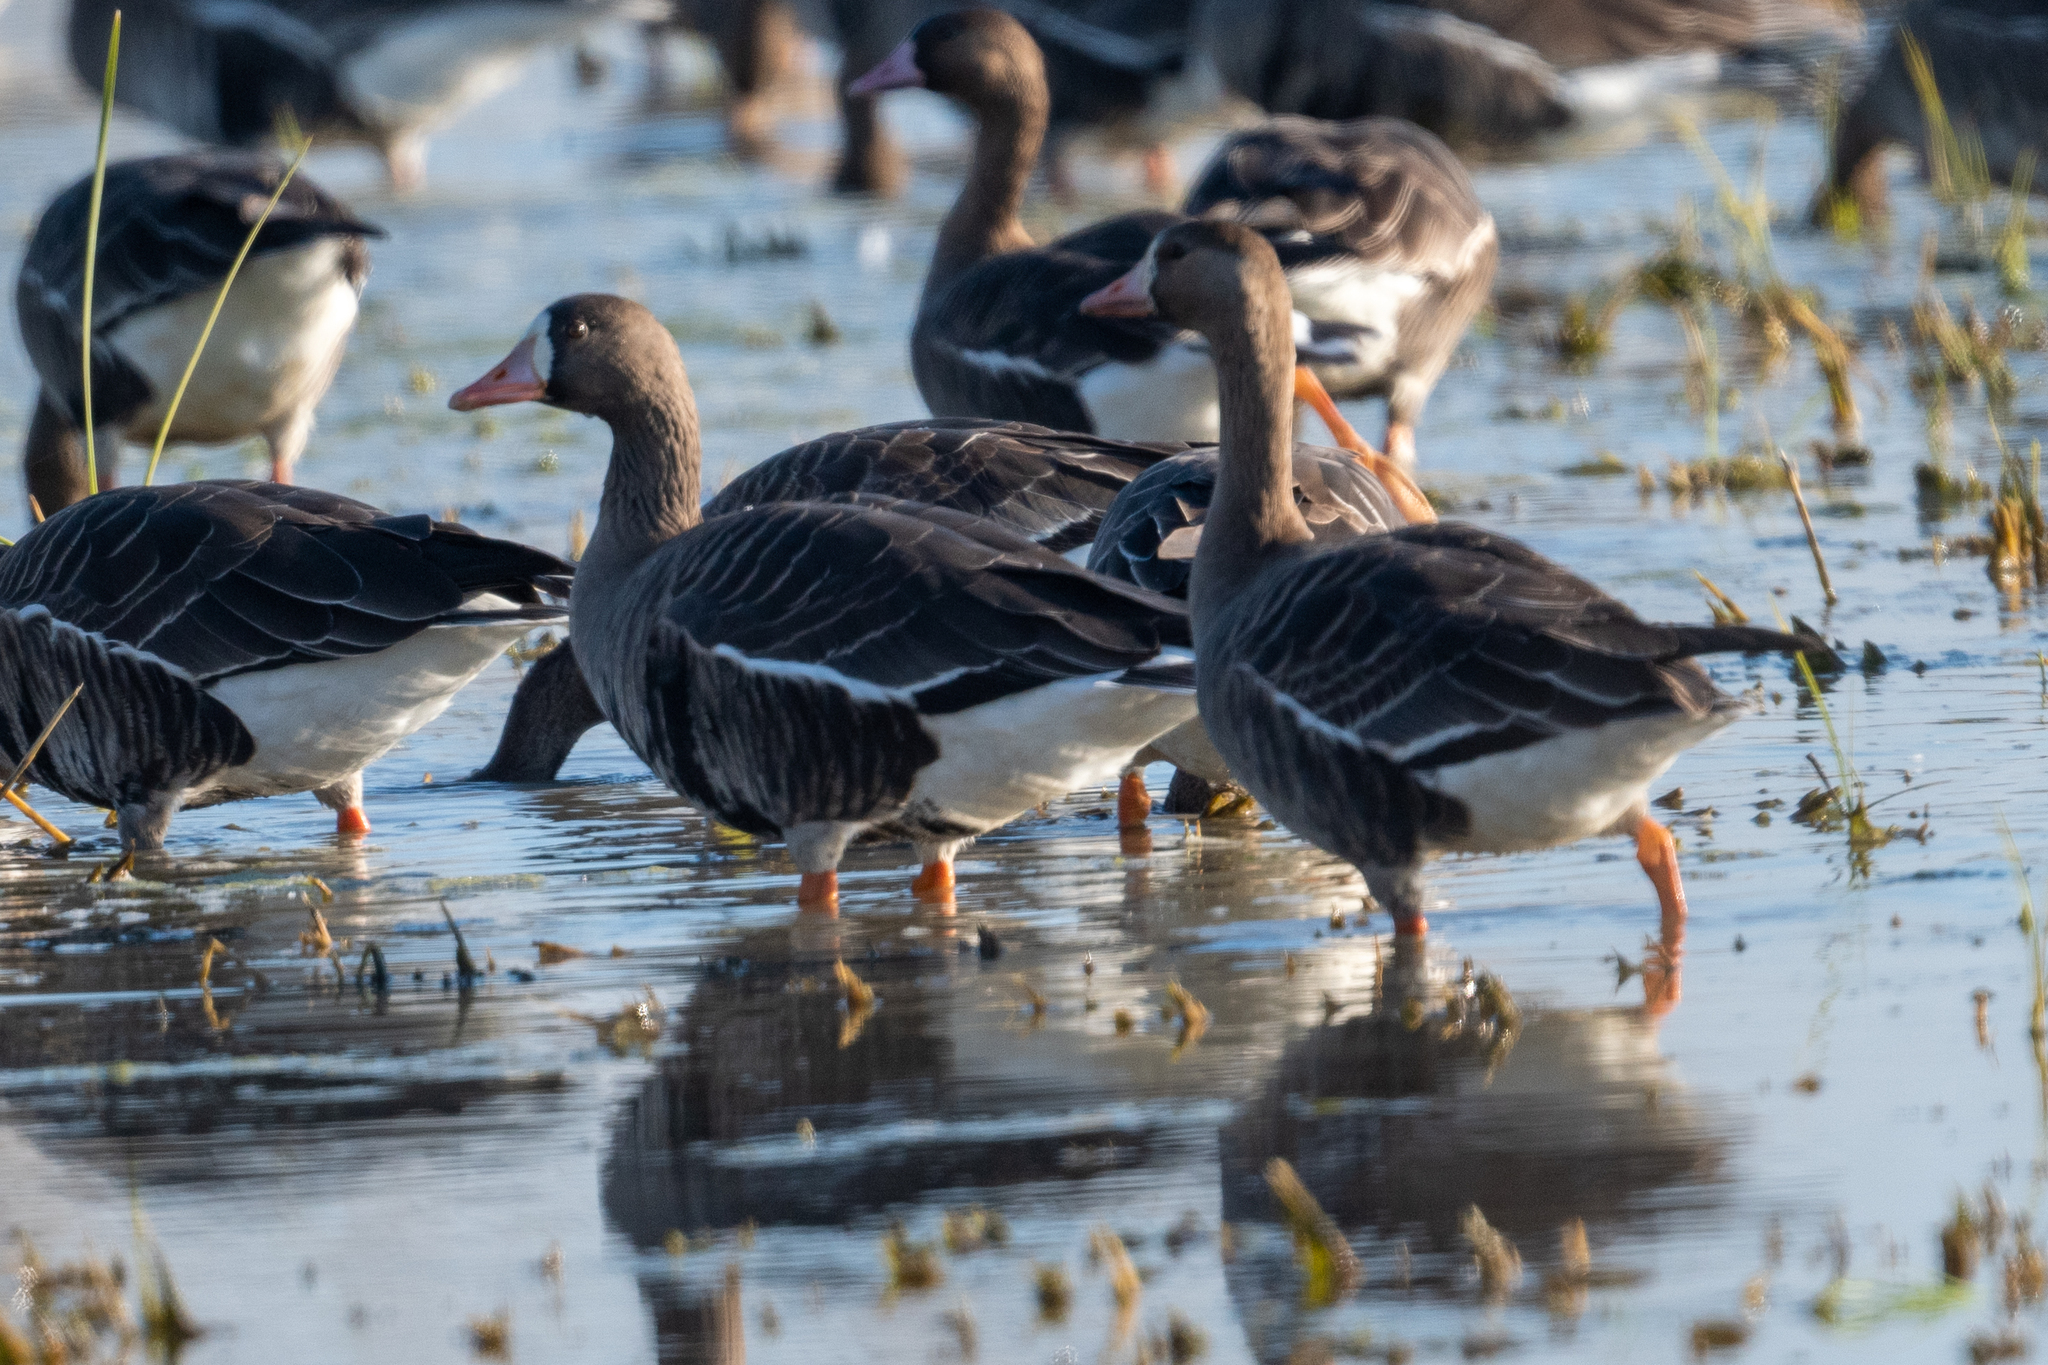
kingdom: Animalia
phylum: Chordata
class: Aves
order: Anseriformes
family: Anatidae
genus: Anser
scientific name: Anser albifrons
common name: Greater white-fronted goose
